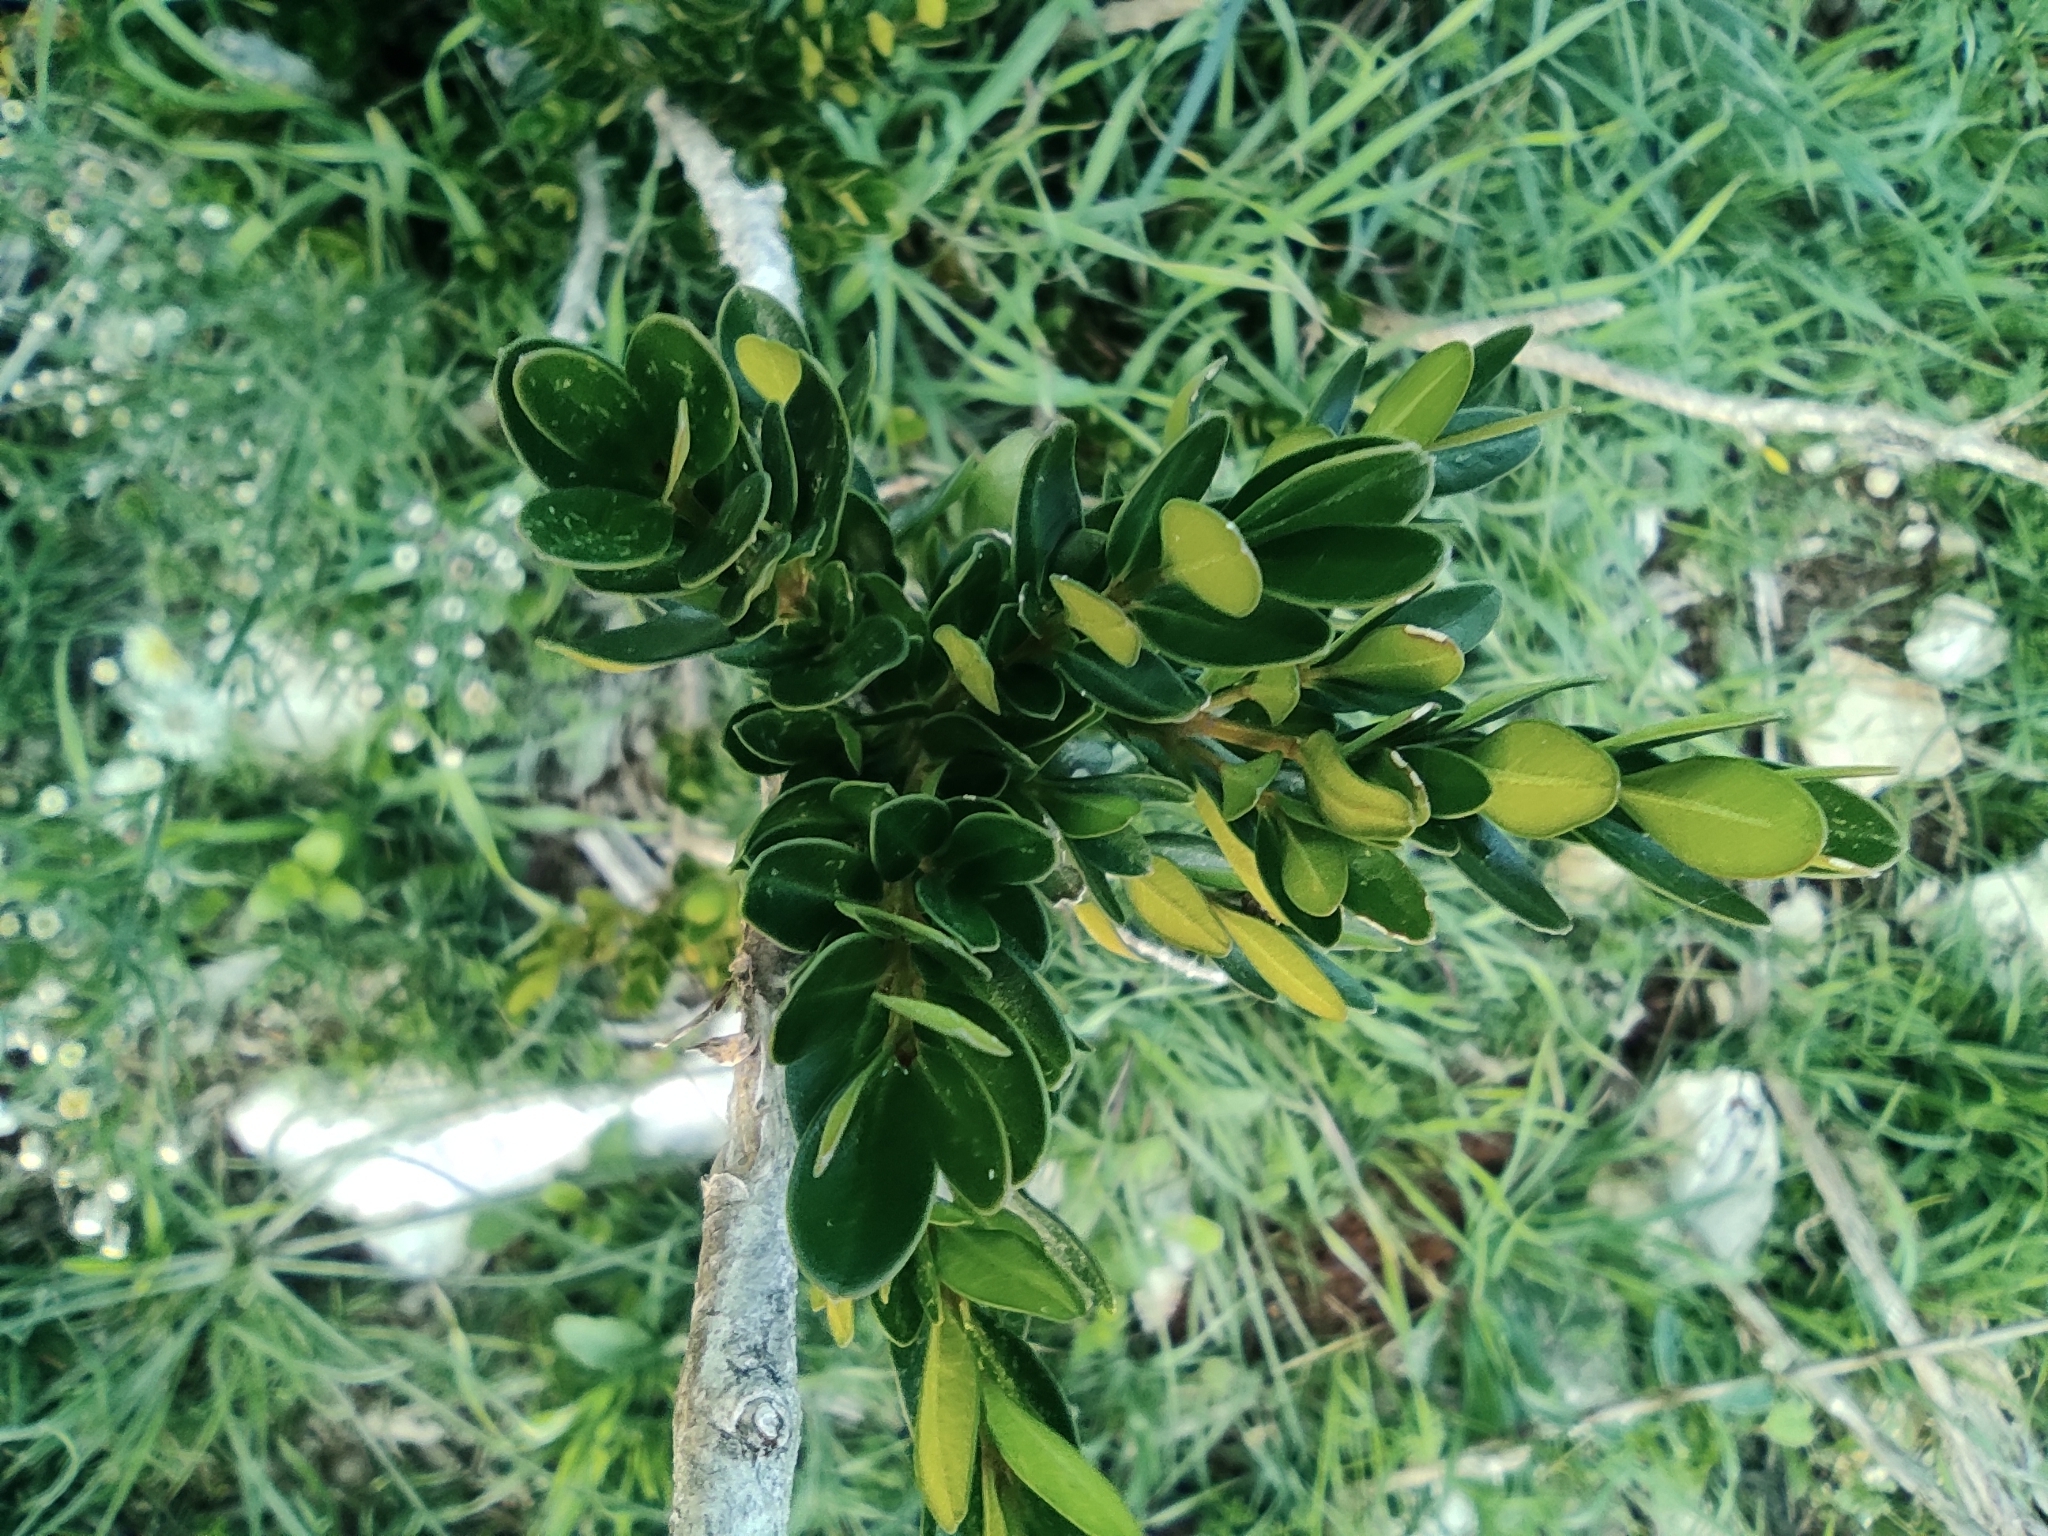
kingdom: Plantae
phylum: Tracheophyta
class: Magnoliopsida
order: Buxales
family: Buxaceae
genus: Buxus
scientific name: Buxus sempervirens
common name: Box
